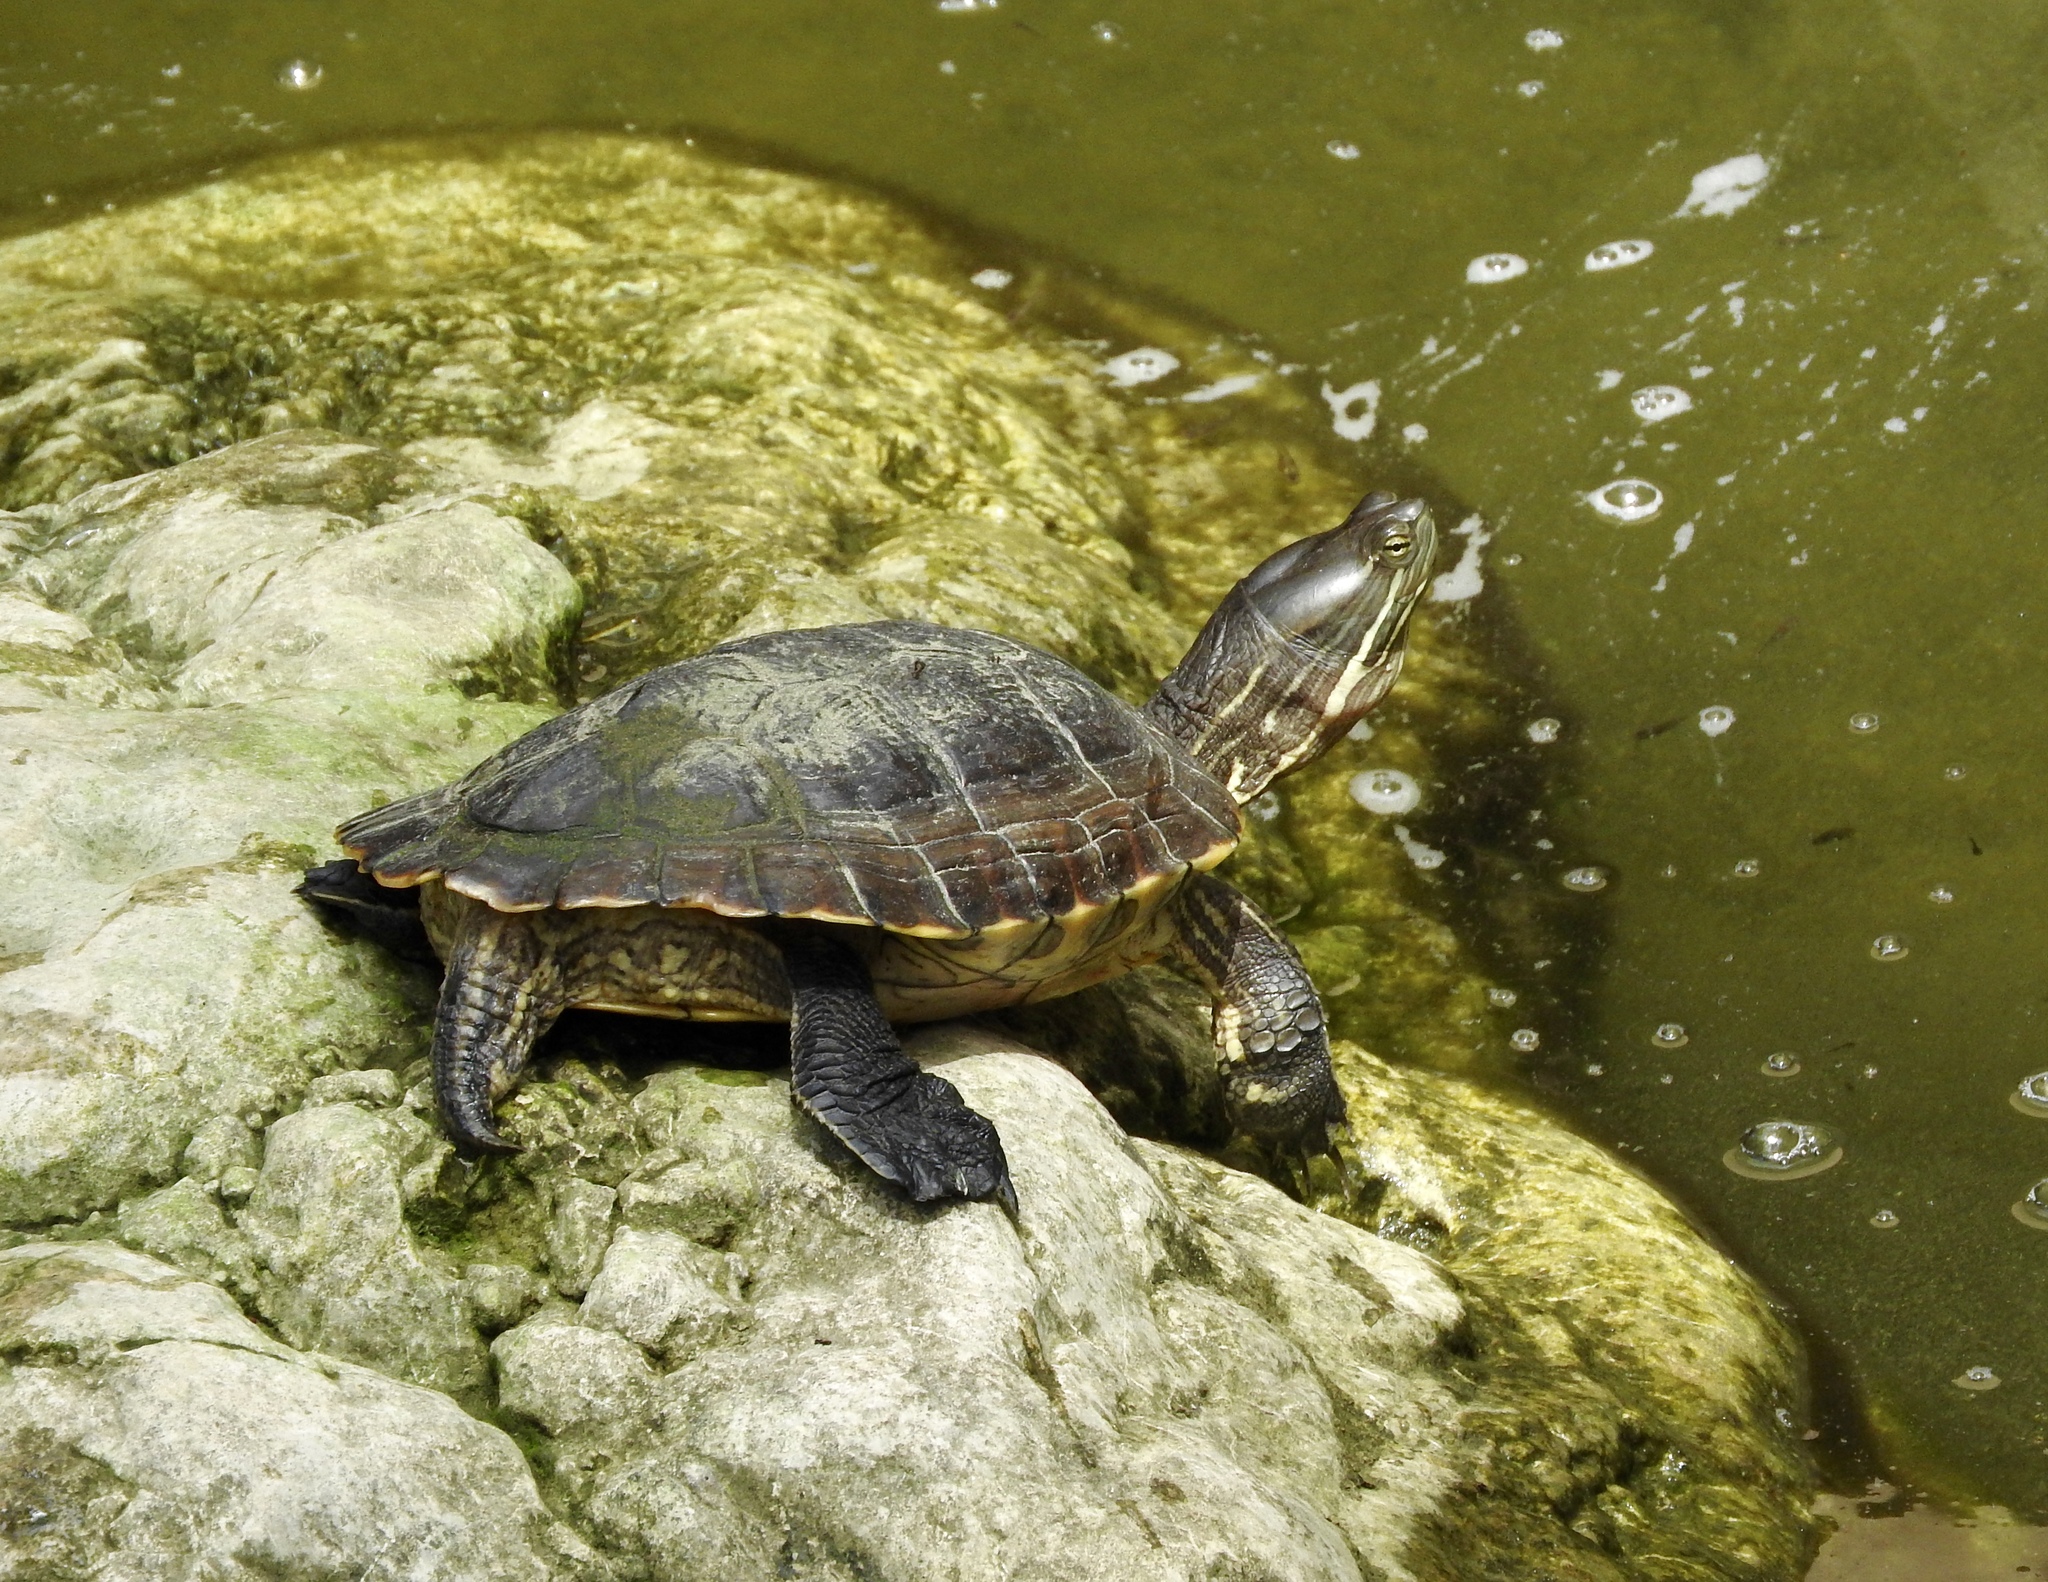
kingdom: Animalia
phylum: Chordata
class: Testudines
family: Emydidae
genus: Trachemys
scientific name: Trachemys terrapen
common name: Jamaican slider
